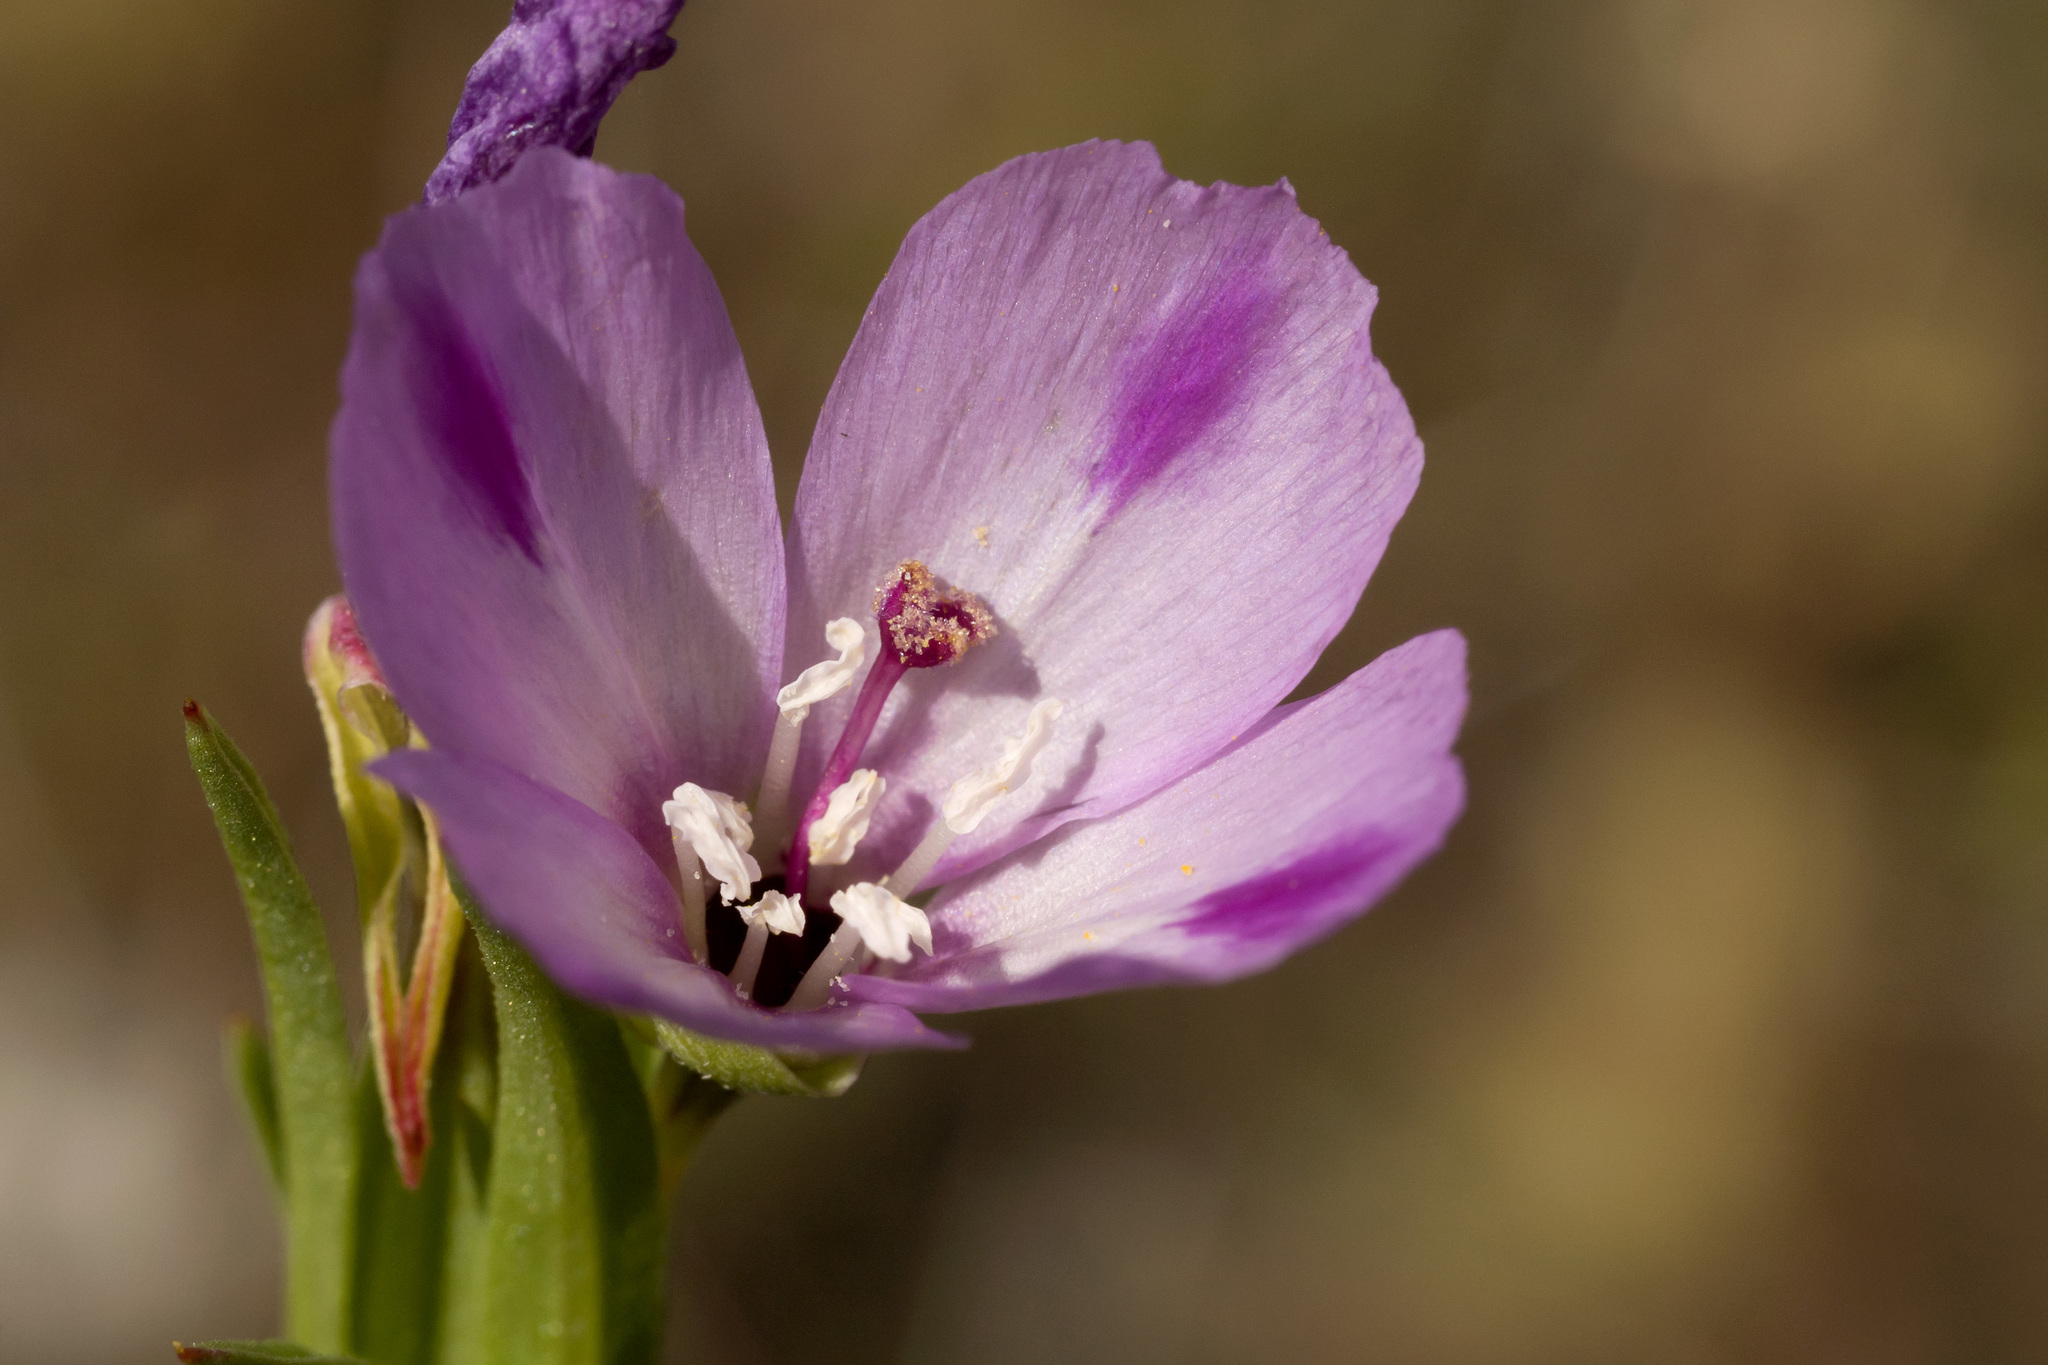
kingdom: Plantae
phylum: Tracheophyta
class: Magnoliopsida
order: Myrtales
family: Onagraceae
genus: Clarkia
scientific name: Clarkia purpurea
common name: Purple clarkia
